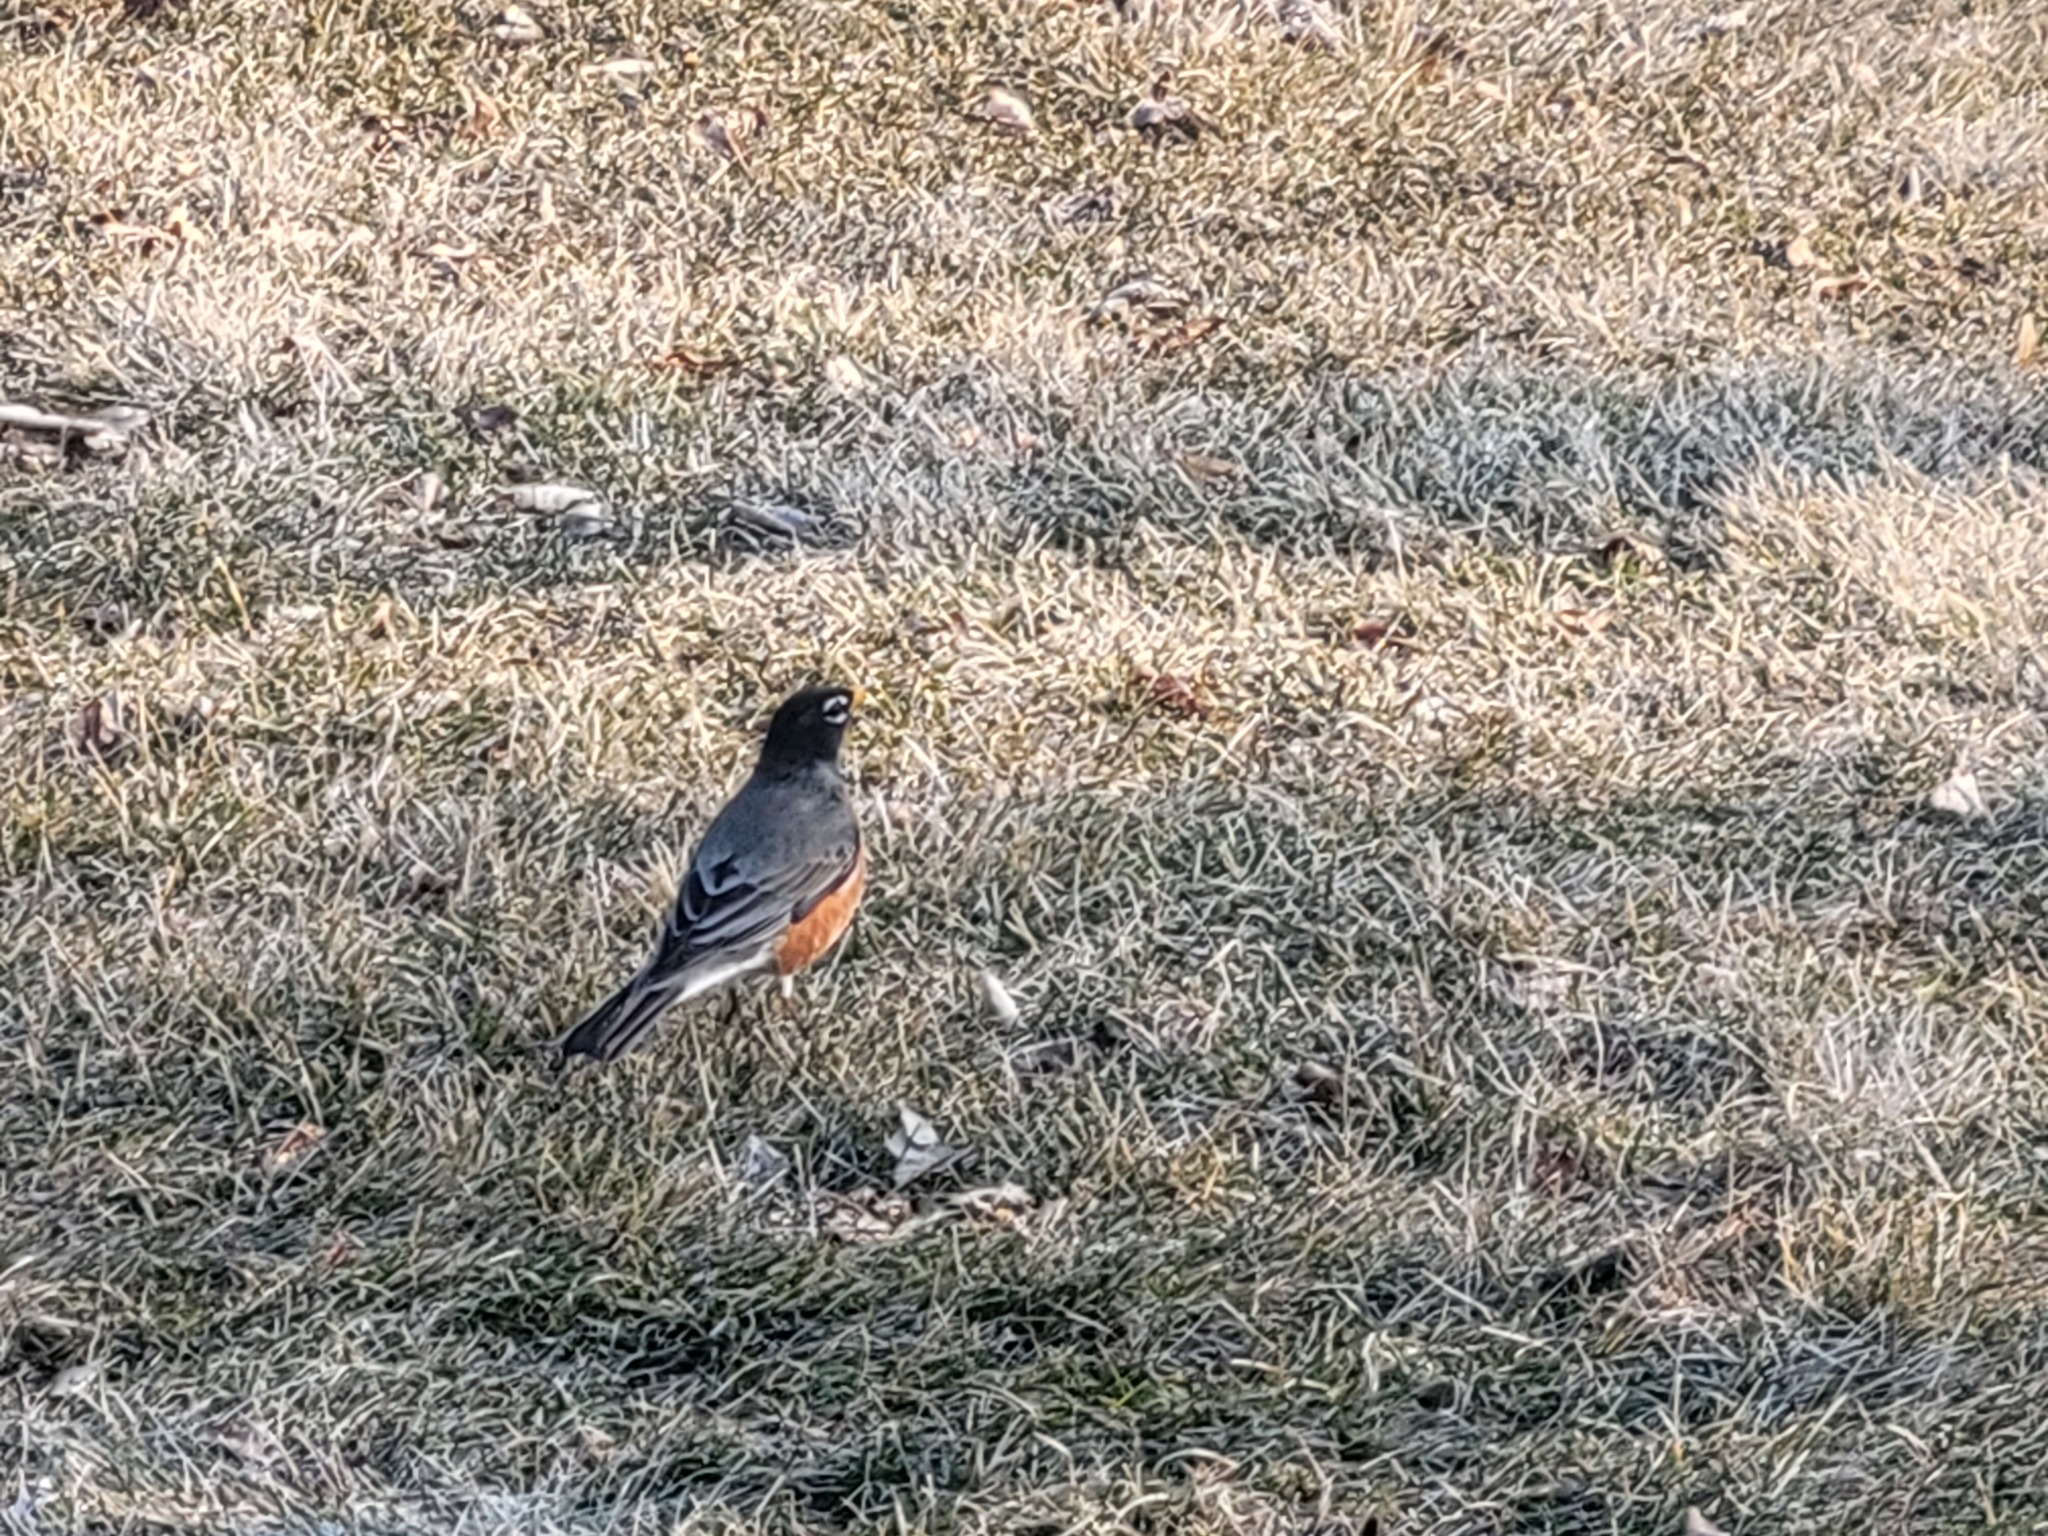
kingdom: Animalia
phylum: Chordata
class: Aves
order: Passeriformes
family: Turdidae
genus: Turdus
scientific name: Turdus migratorius
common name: American robin
